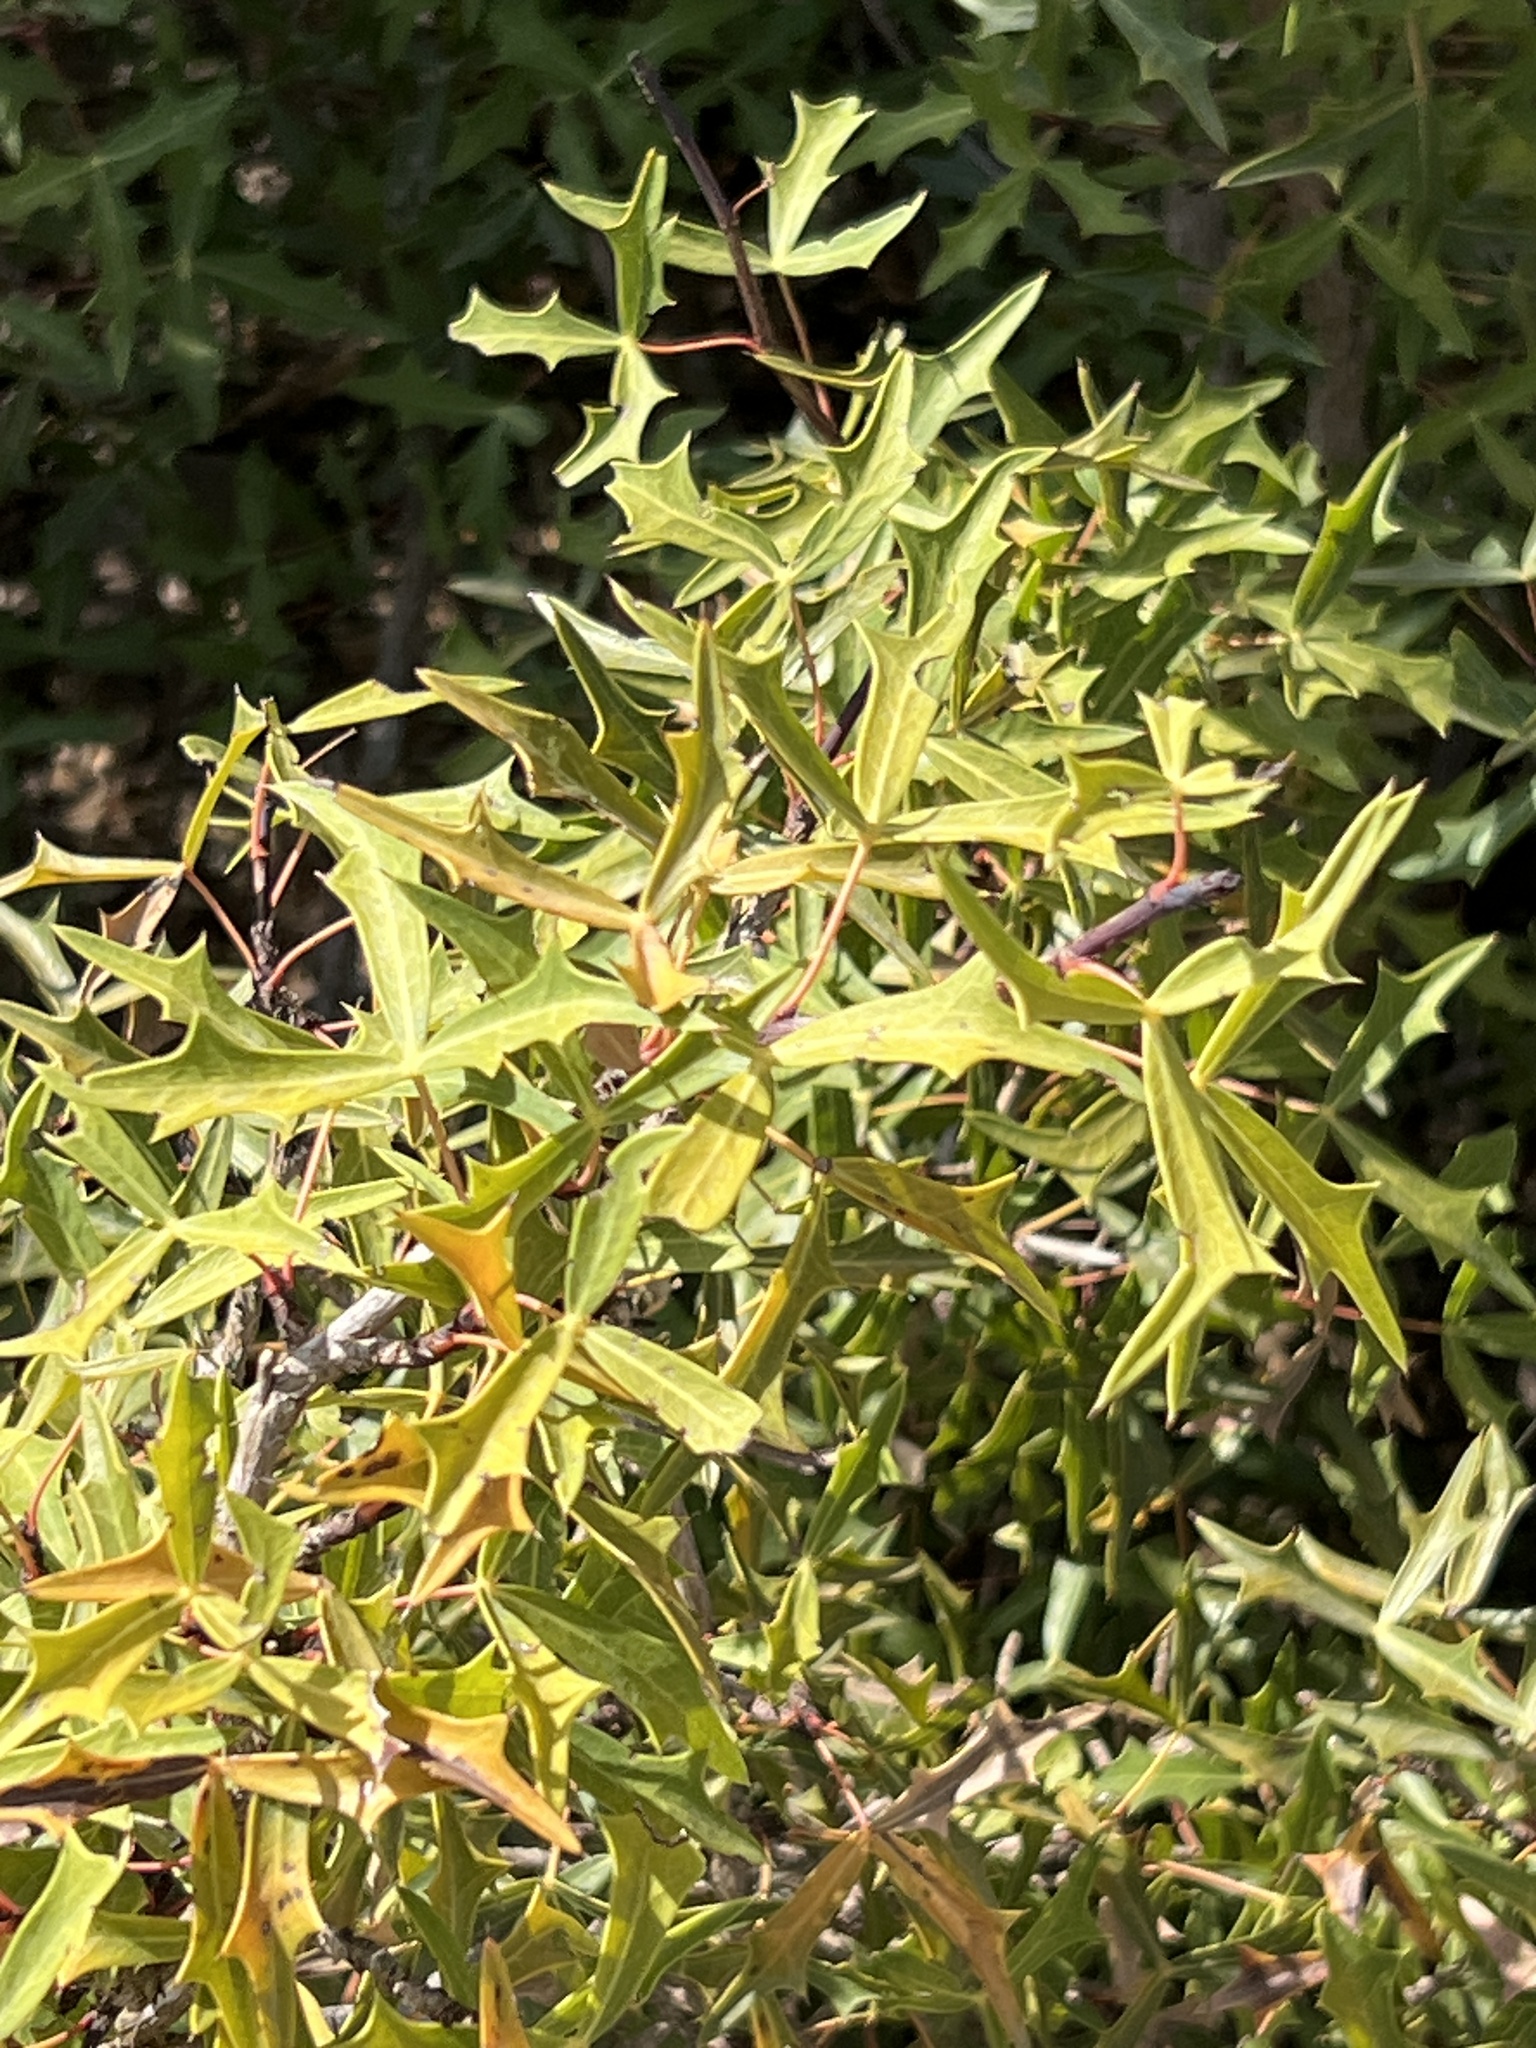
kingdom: Plantae
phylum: Tracheophyta
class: Magnoliopsida
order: Ranunculales
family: Berberidaceae
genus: Alloberberis
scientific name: Alloberberis trifoliolata
